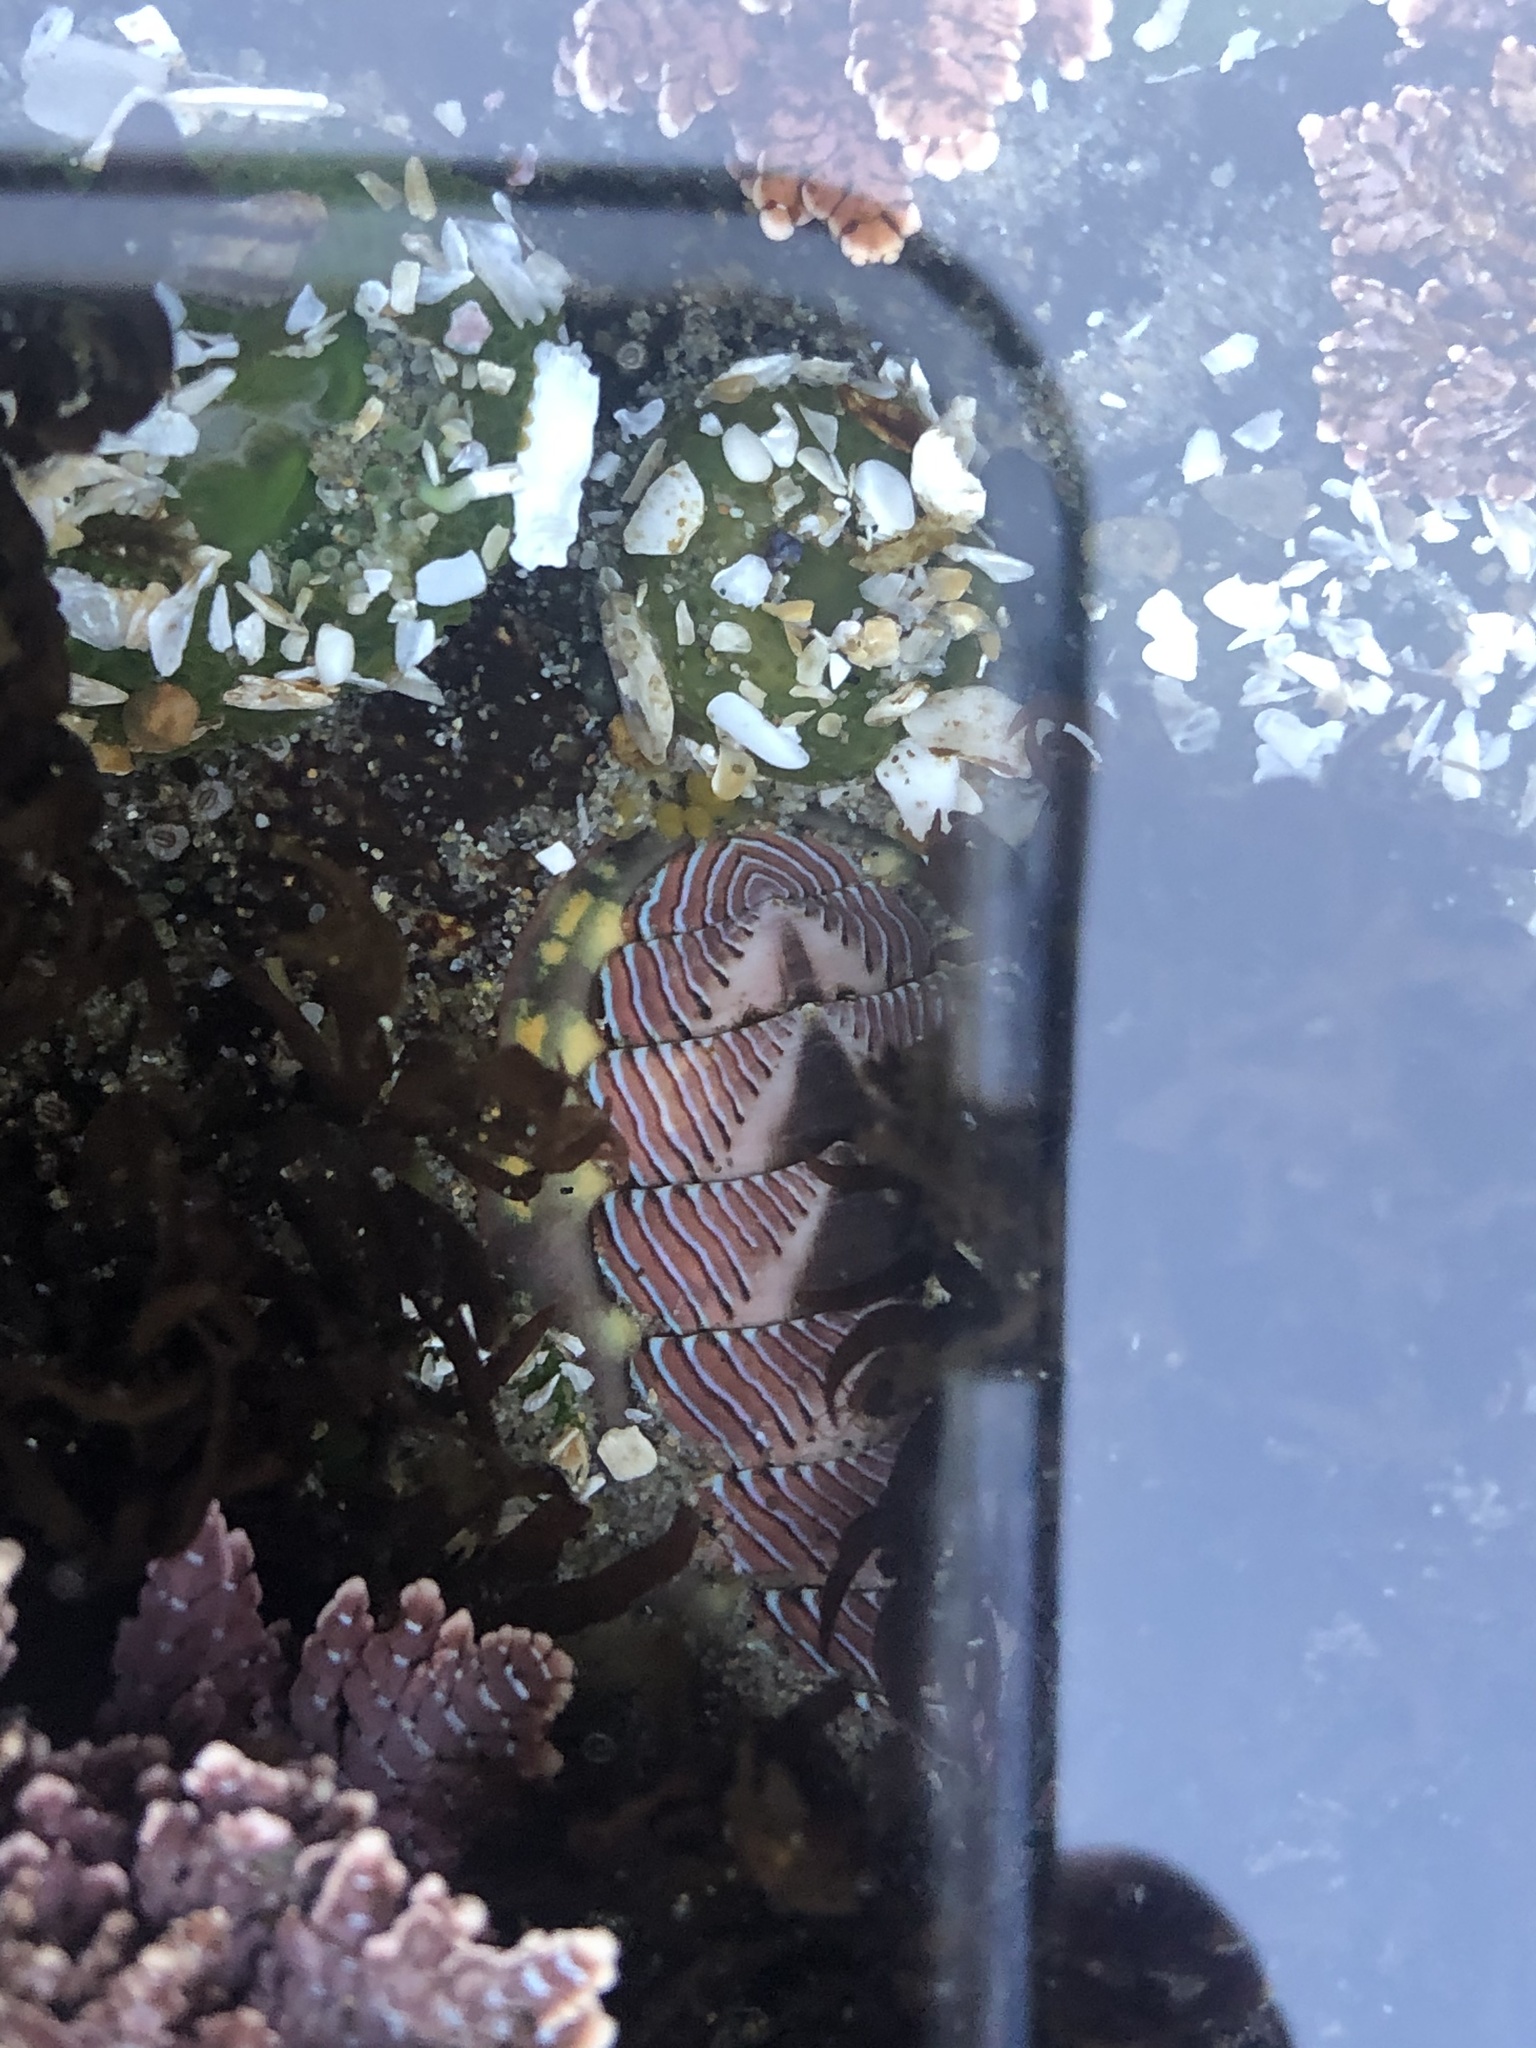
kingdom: Animalia
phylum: Mollusca
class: Polyplacophora
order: Chitonida
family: Tonicellidae
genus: Tonicella
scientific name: Tonicella lineata
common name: Lined chiton
